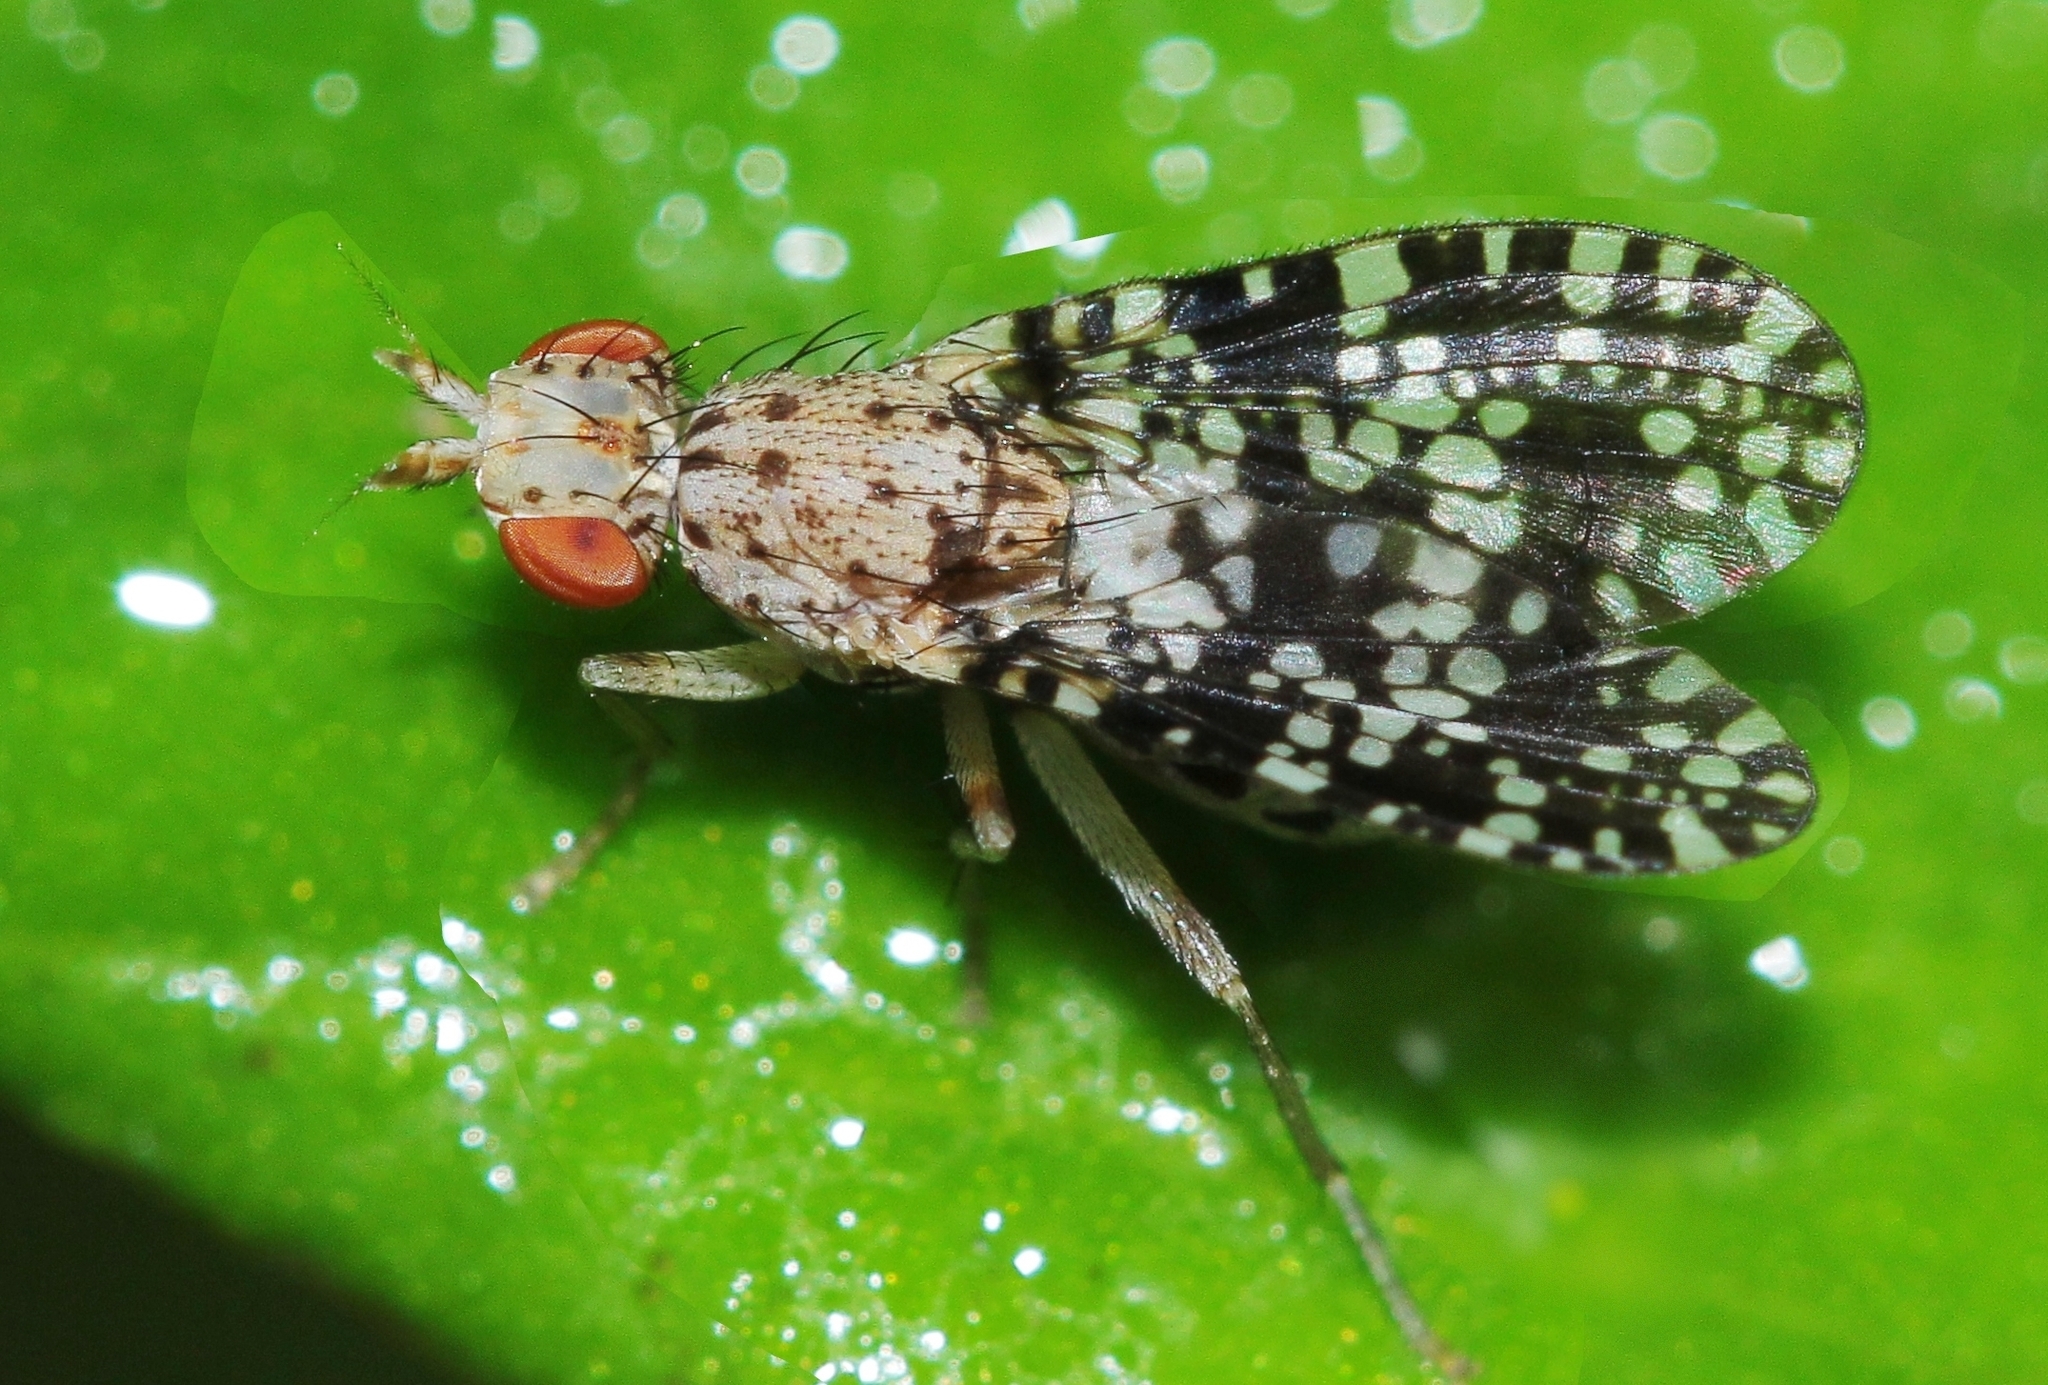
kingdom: Animalia
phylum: Arthropoda
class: Insecta
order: Diptera
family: Sciomyzidae
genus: Trypetoptera
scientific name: Trypetoptera punctulata
